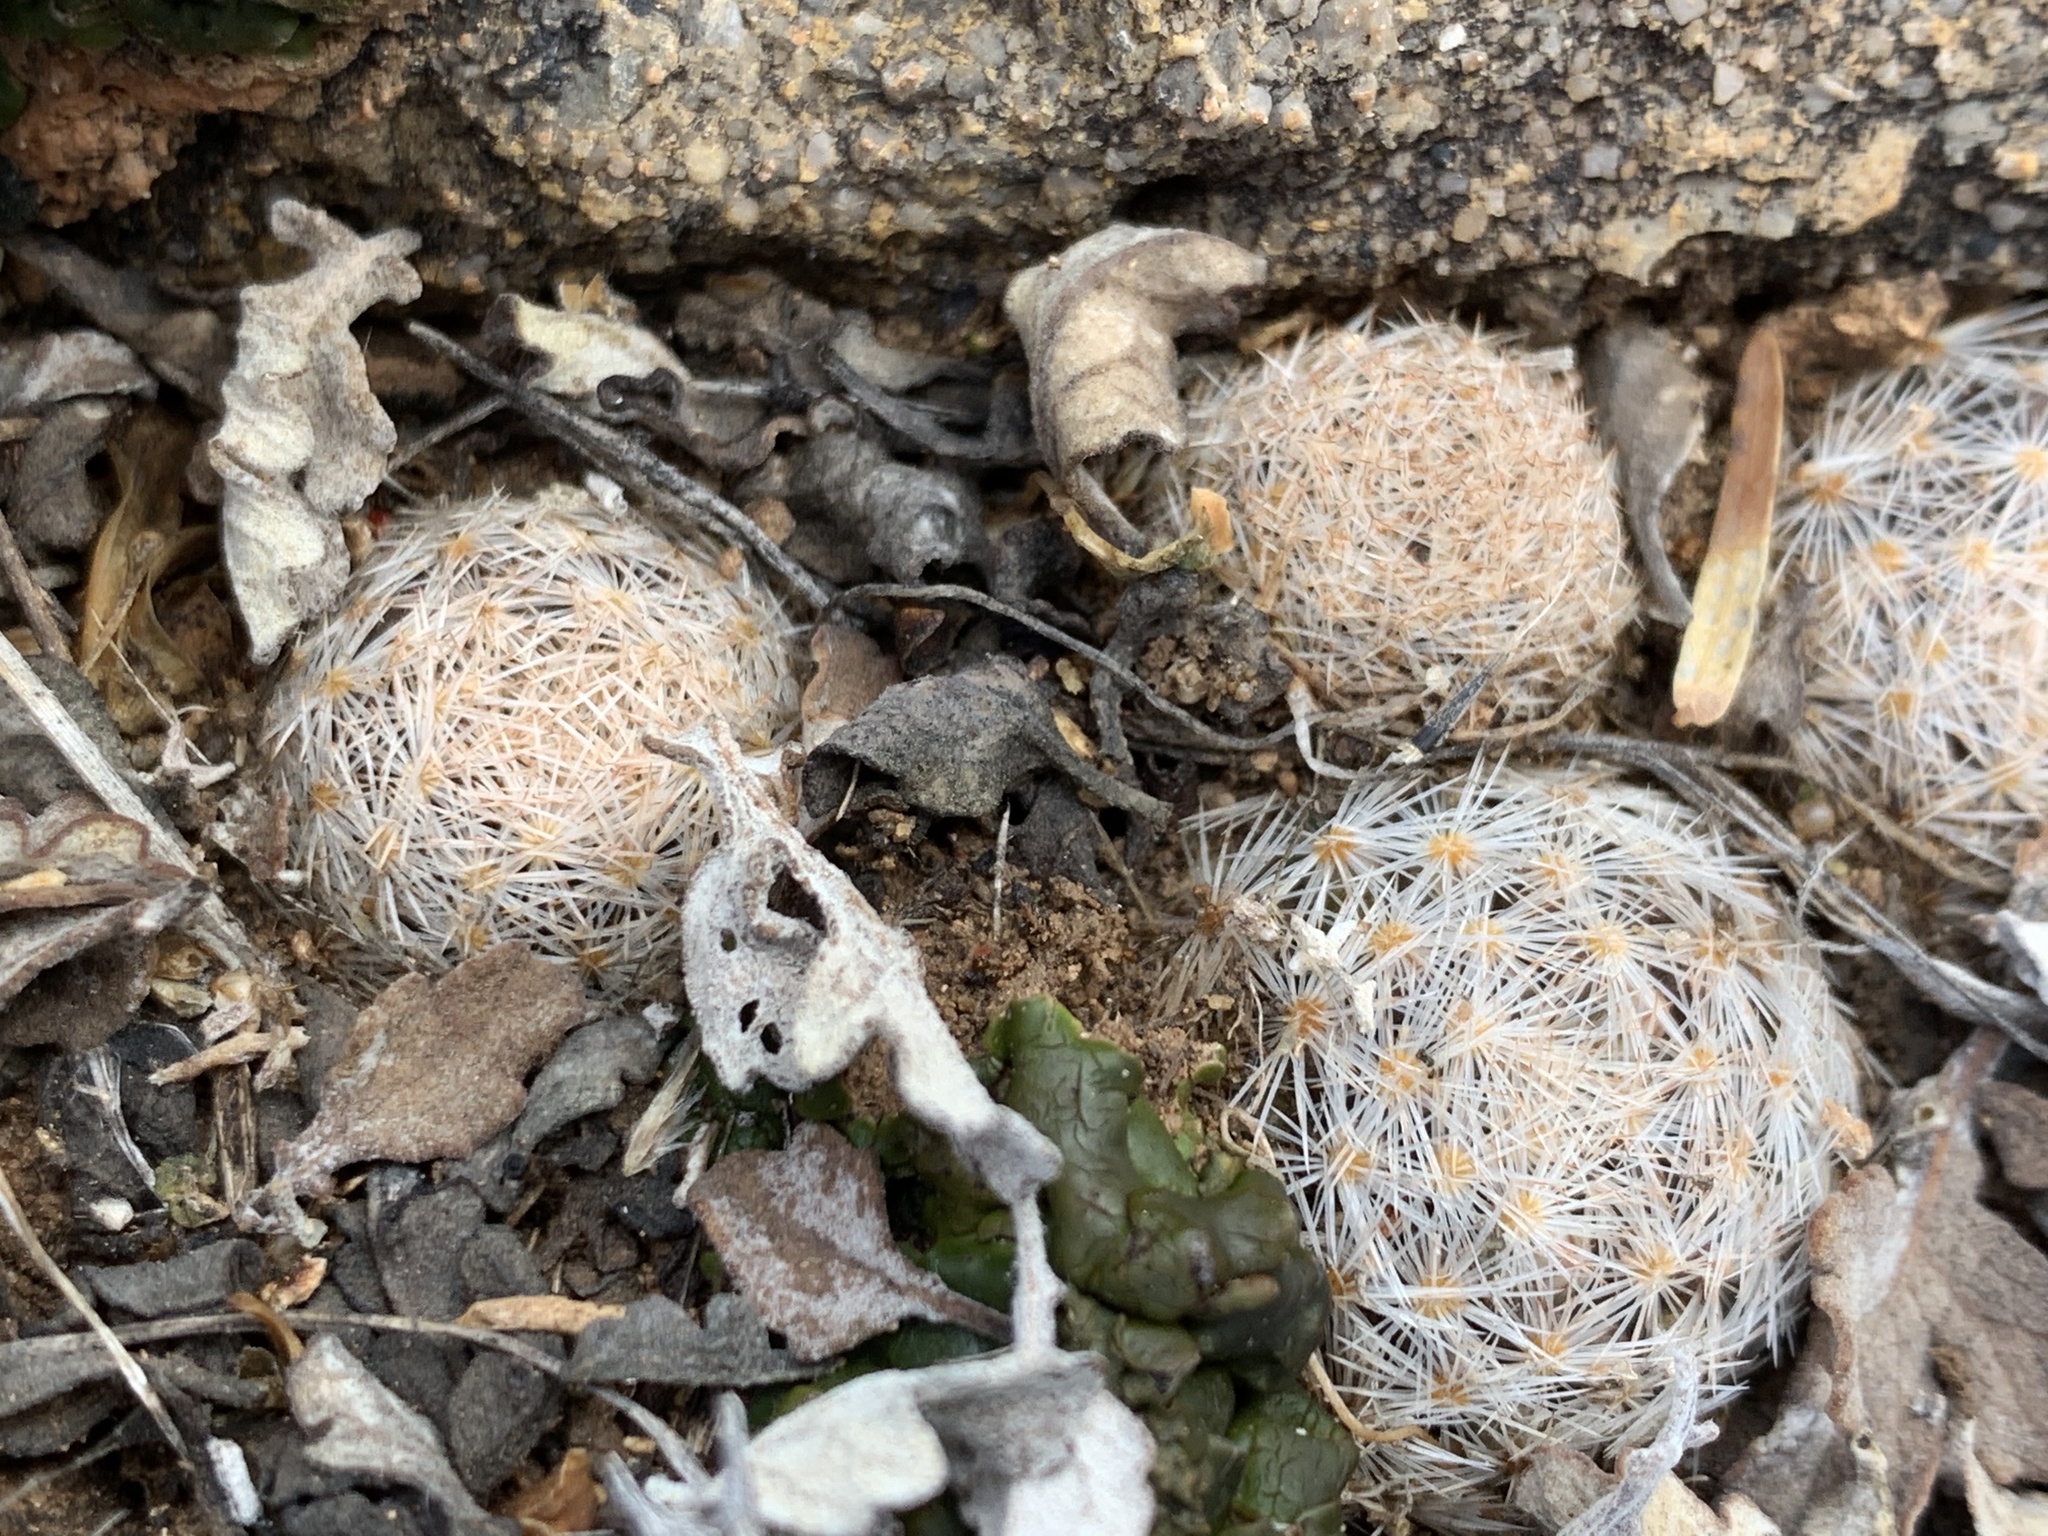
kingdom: Plantae
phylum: Tracheophyta
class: Magnoliopsida
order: Caryophyllales
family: Cactaceae
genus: Mammillaria
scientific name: Mammillaria lasiacantha
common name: Lace-spine nipple cactus
